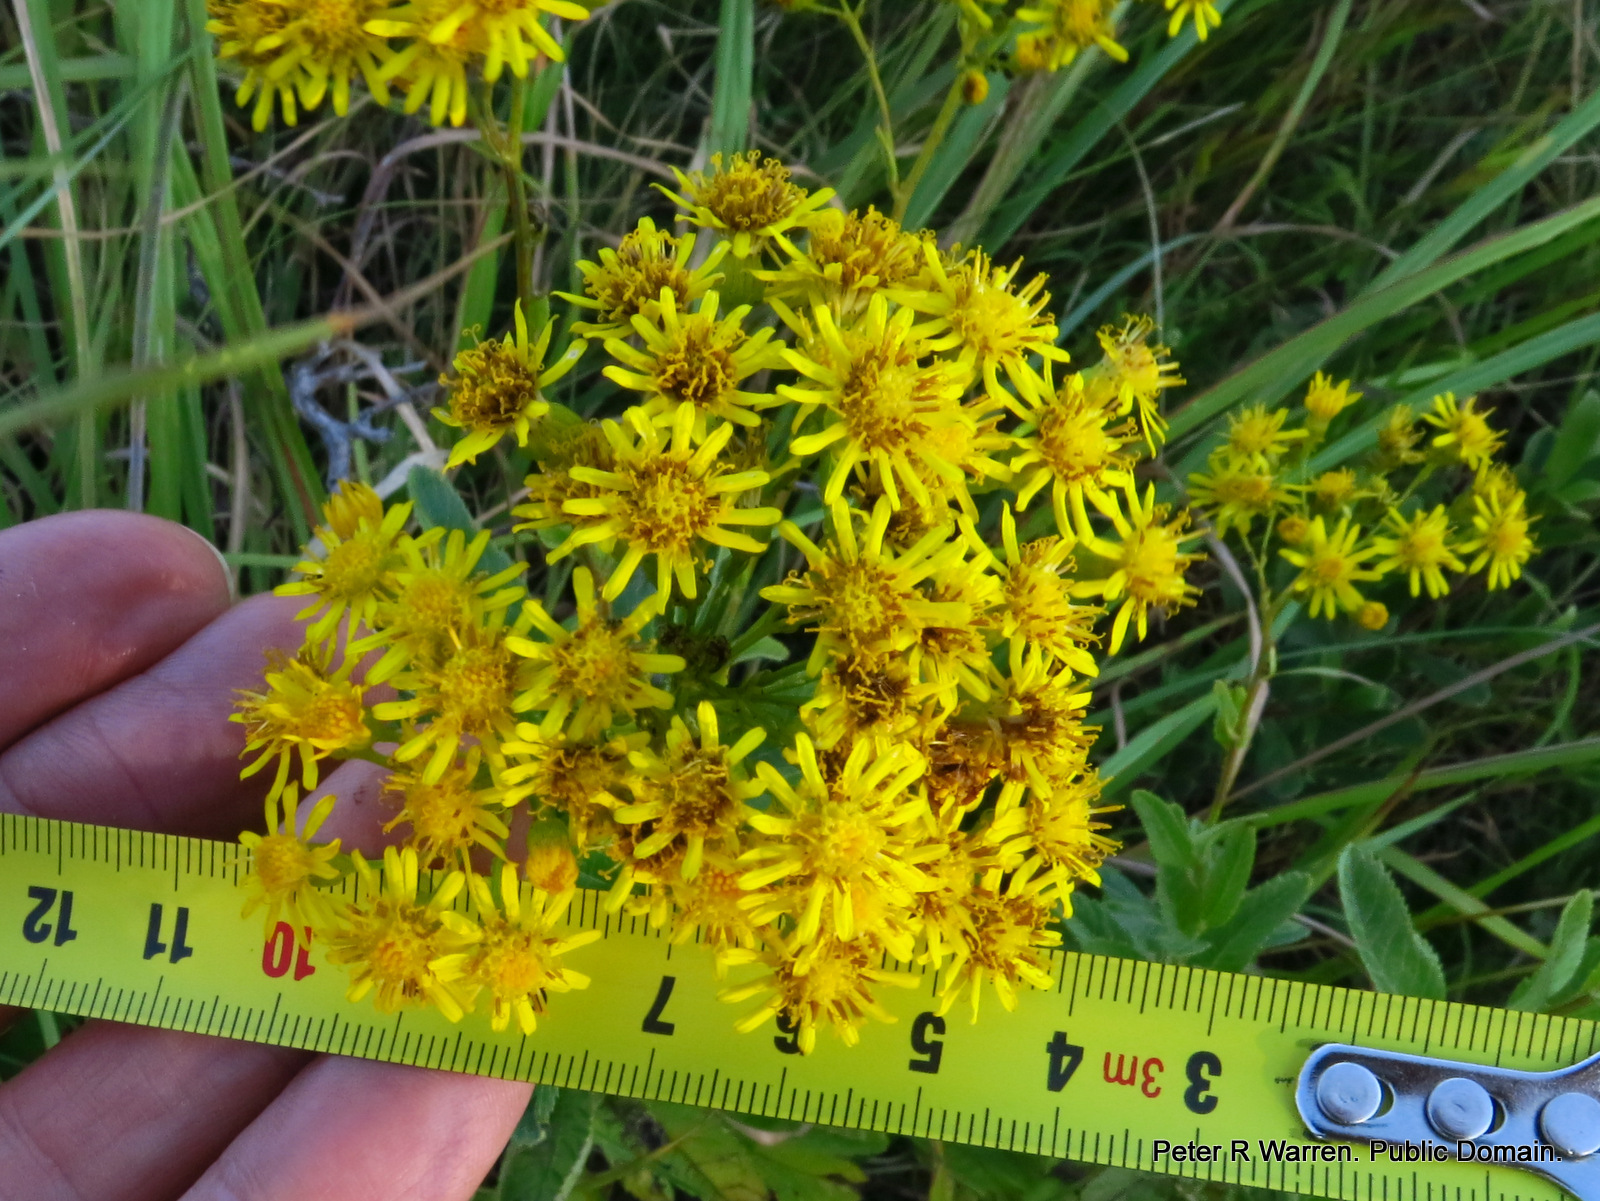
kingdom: Plantae
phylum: Tracheophyta
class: Magnoliopsida
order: Asterales
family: Asteraceae
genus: Senecio
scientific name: Senecio serratuloides
